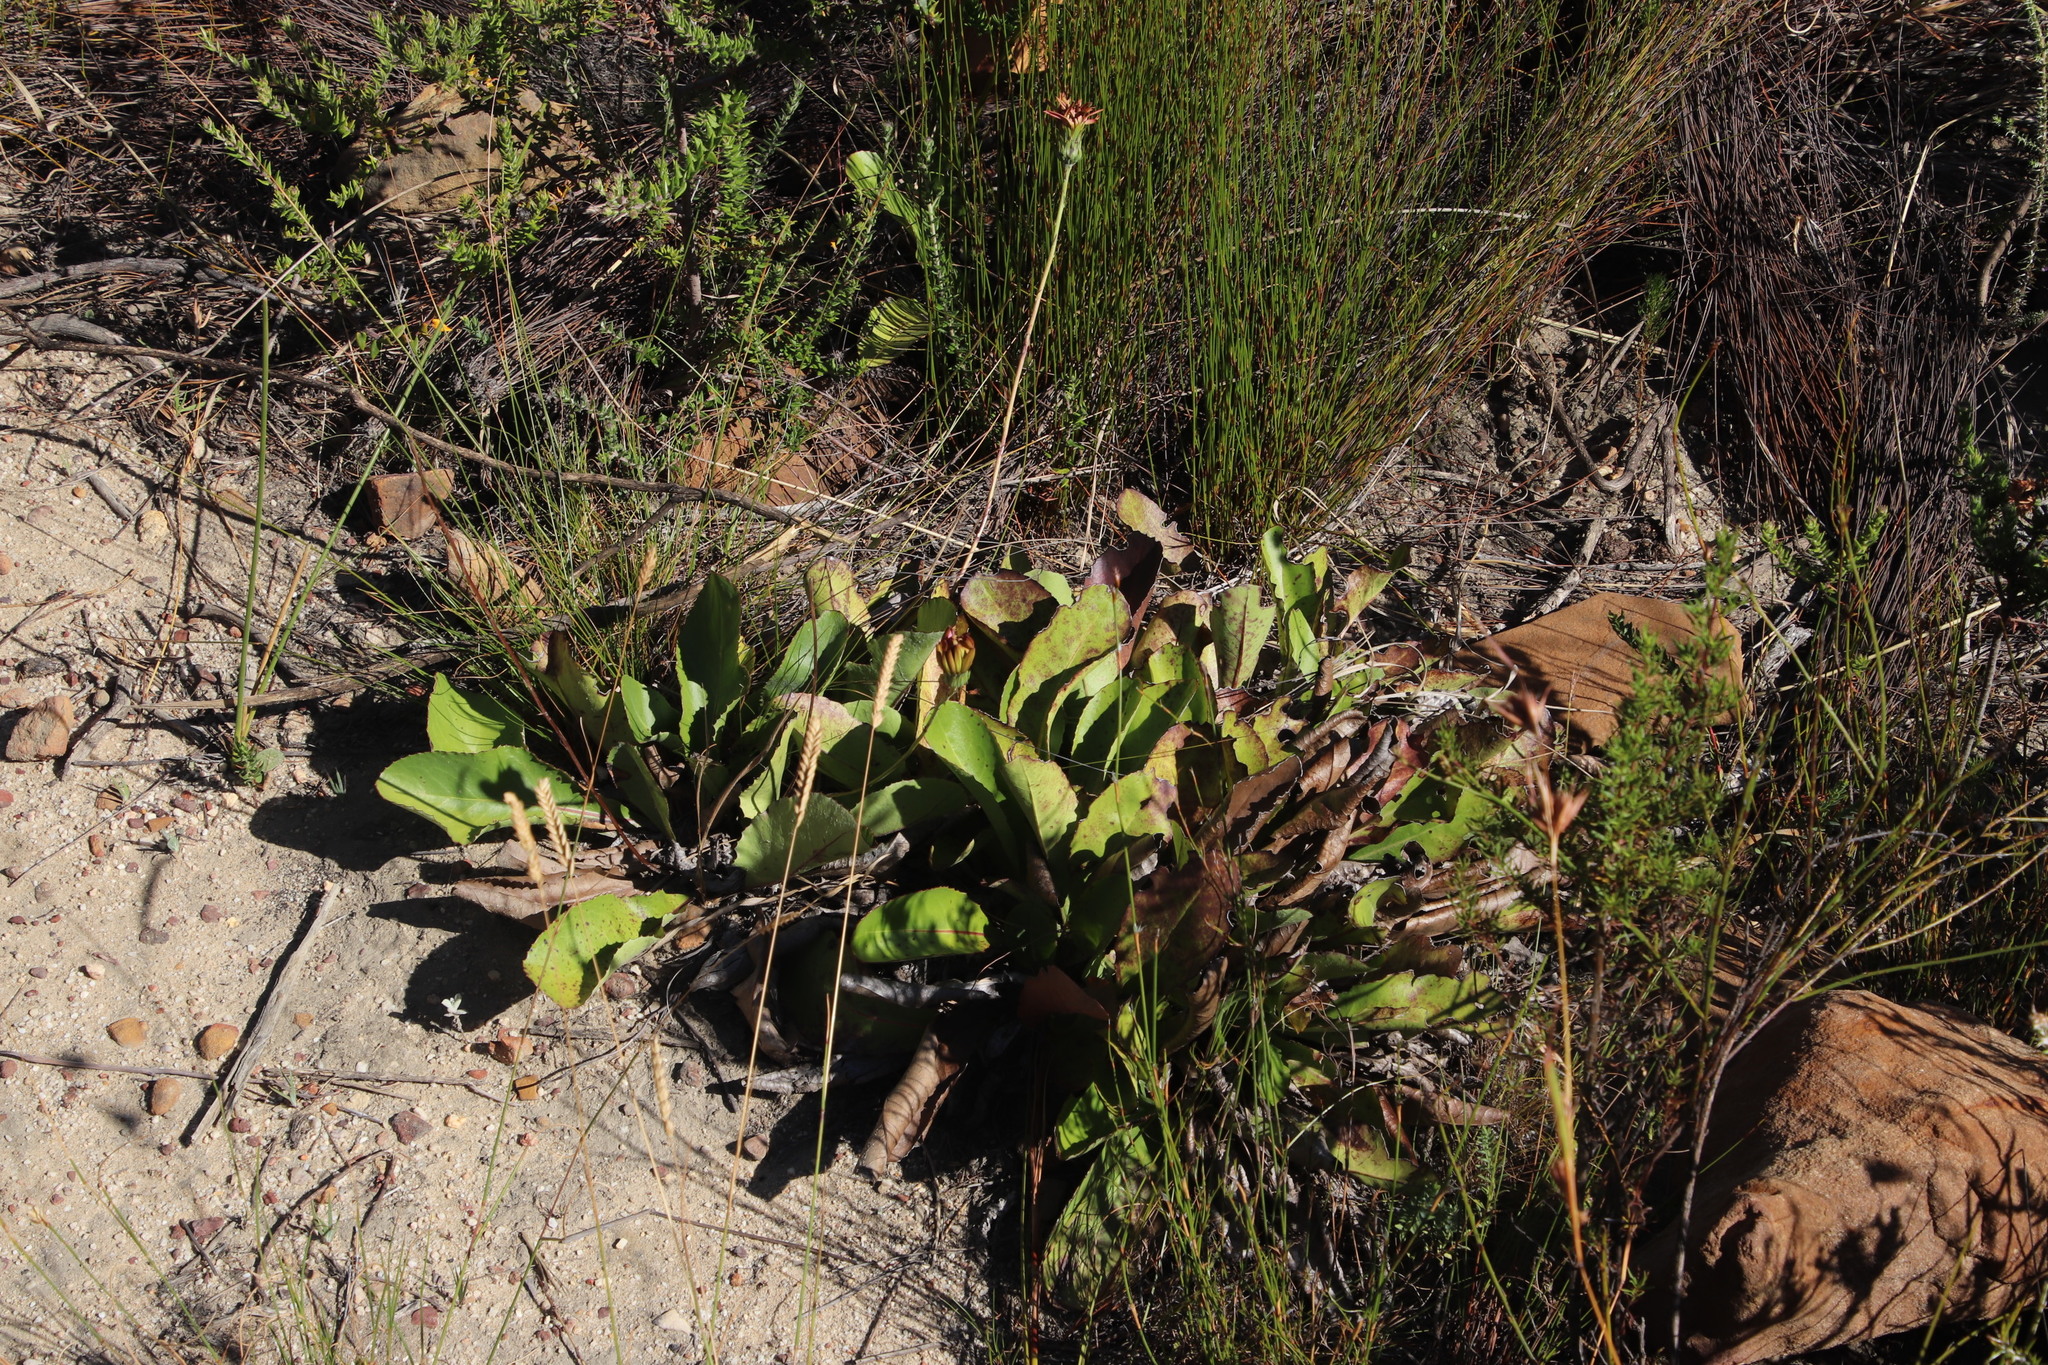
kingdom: Plantae
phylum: Tracheophyta
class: Magnoliopsida
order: Asterales
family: Asteraceae
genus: Gerbera
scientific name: Gerbera crocea
